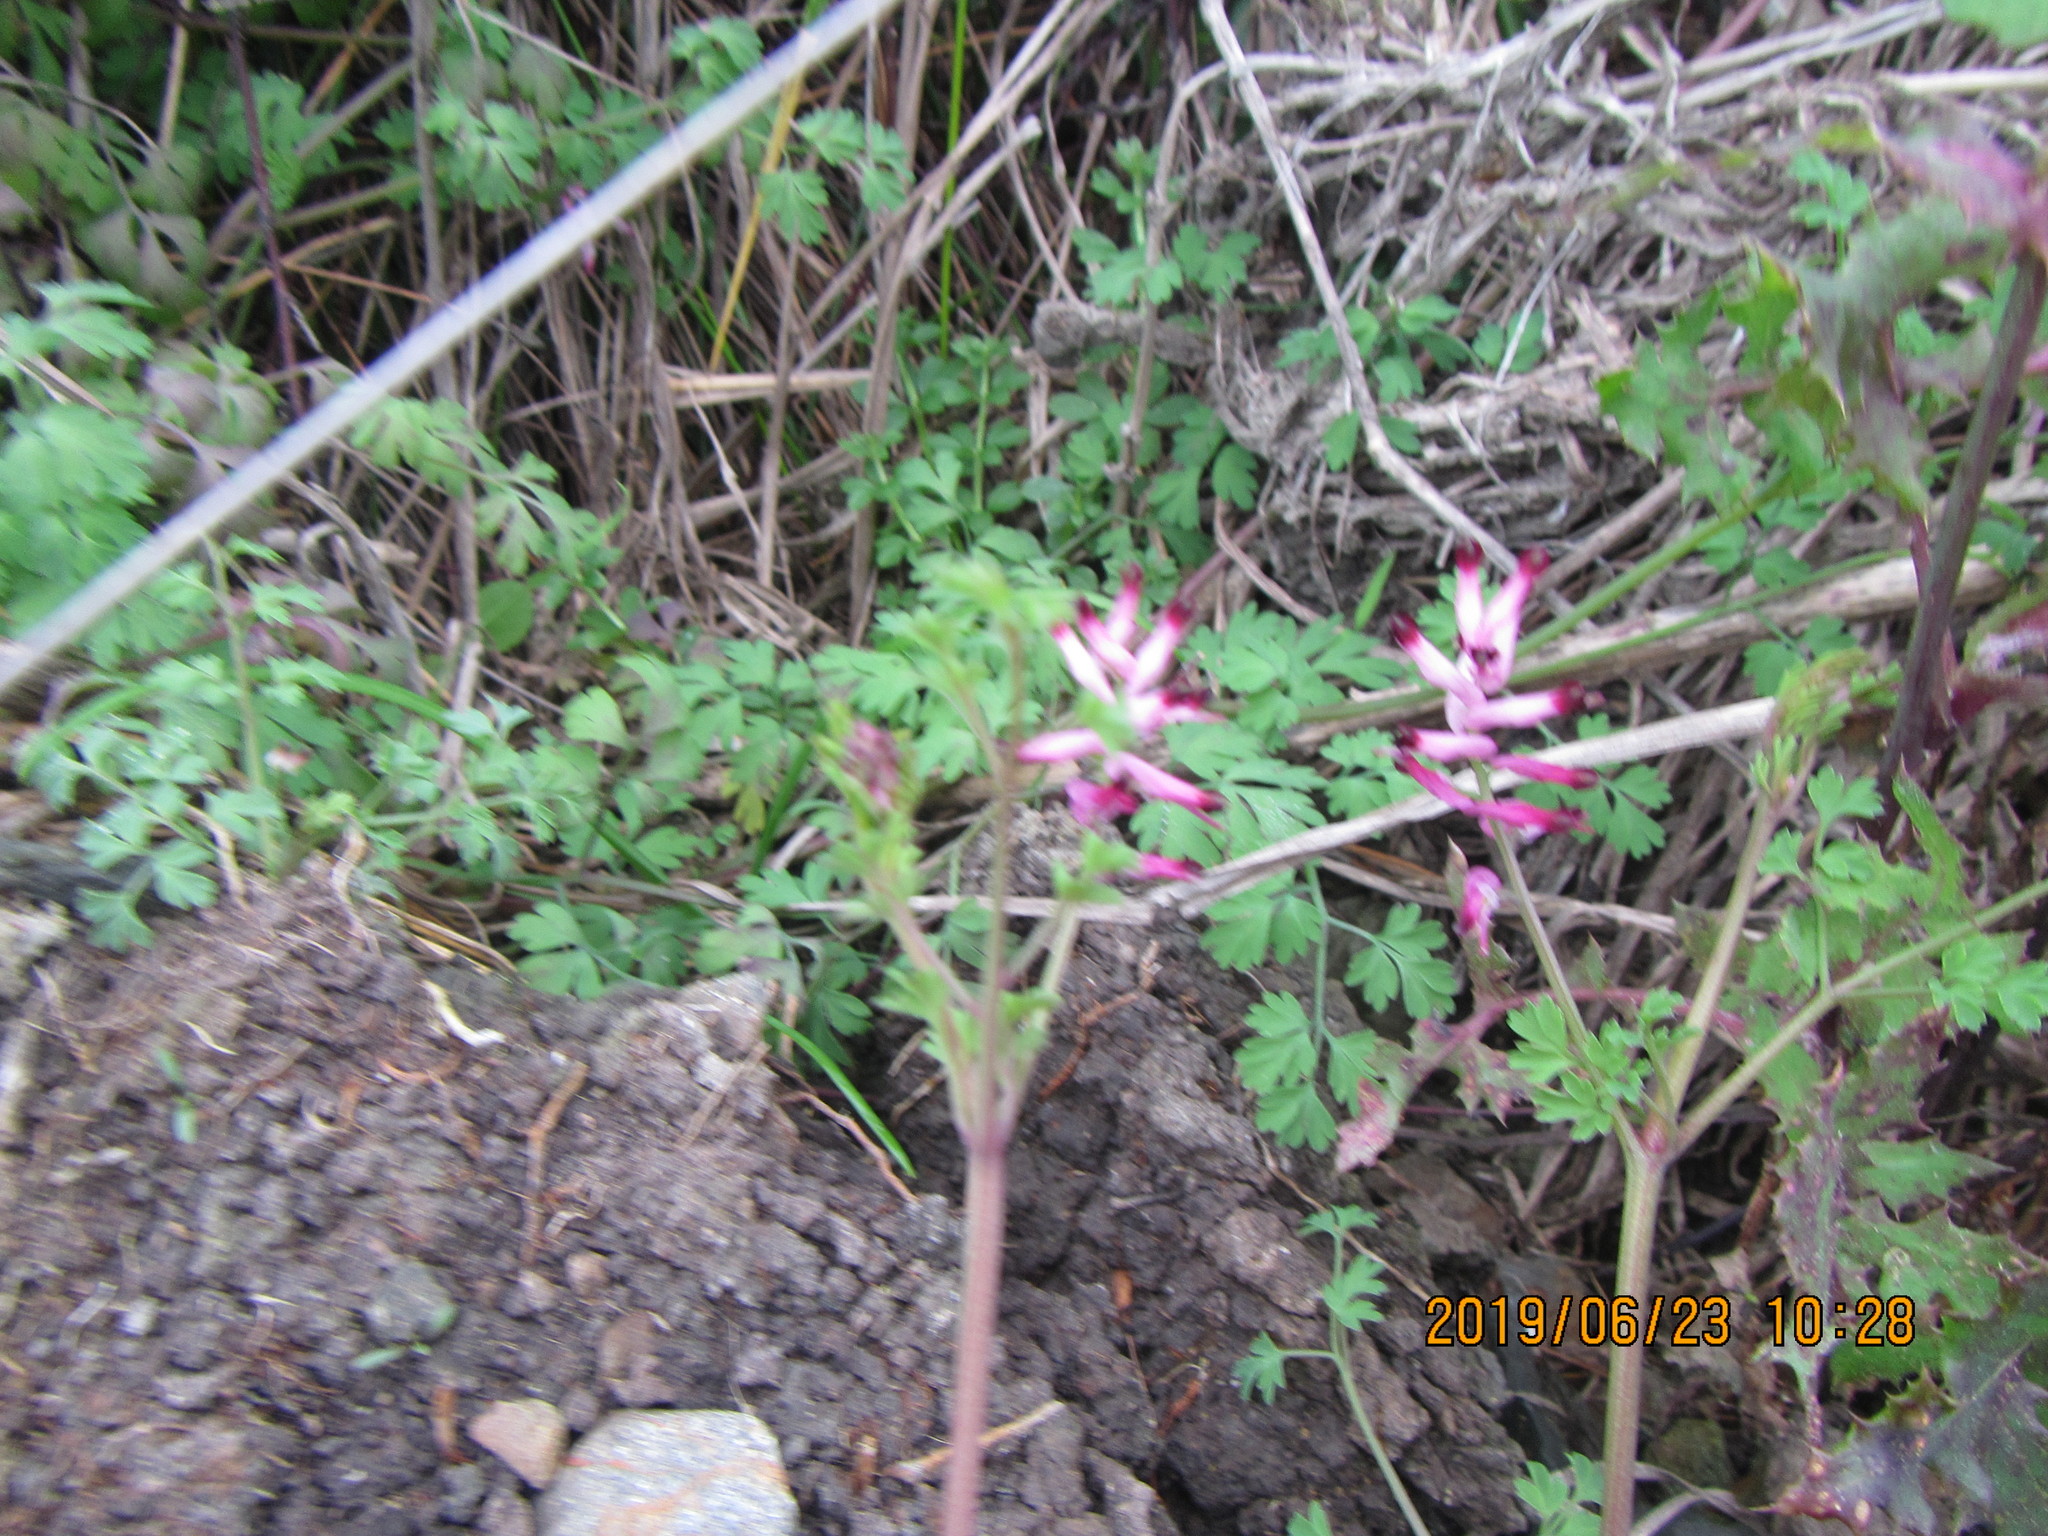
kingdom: Plantae
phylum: Tracheophyta
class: Magnoliopsida
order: Ranunculales
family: Papaveraceae
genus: Fumaria
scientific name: Fumaria muralis
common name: Common ramping-fumitory
